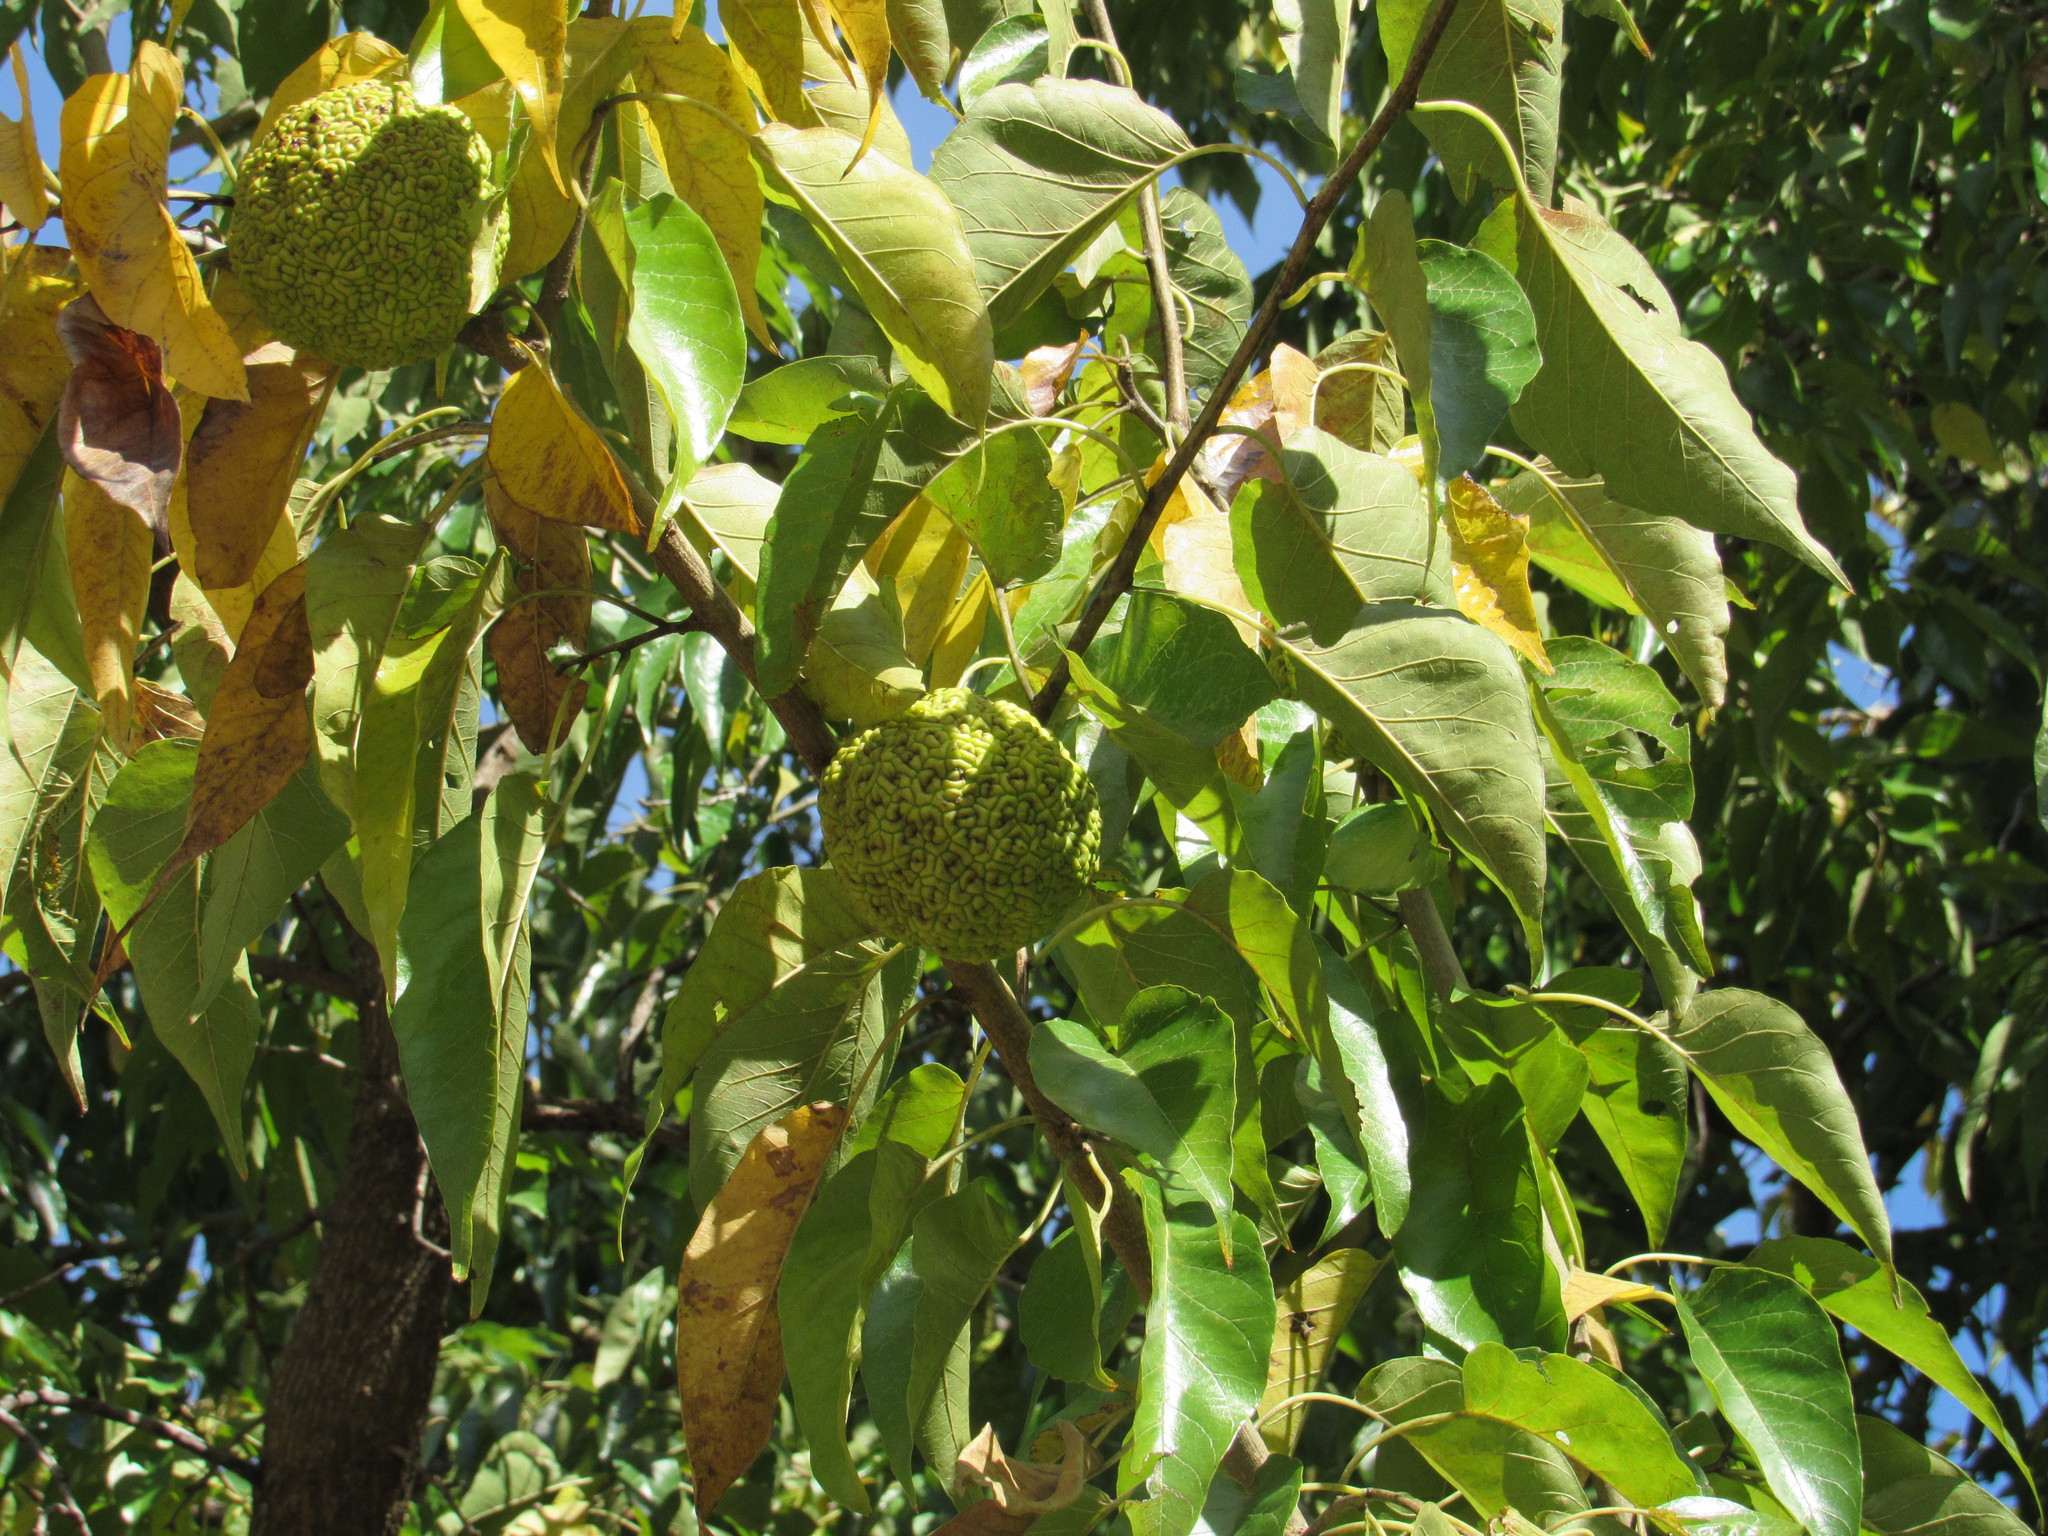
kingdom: Plantae
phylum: Tracheophyta
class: Magnoliopsida
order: Rosales
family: Moraceae
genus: Maclura
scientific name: Maclura pomifera
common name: Osage-orange
